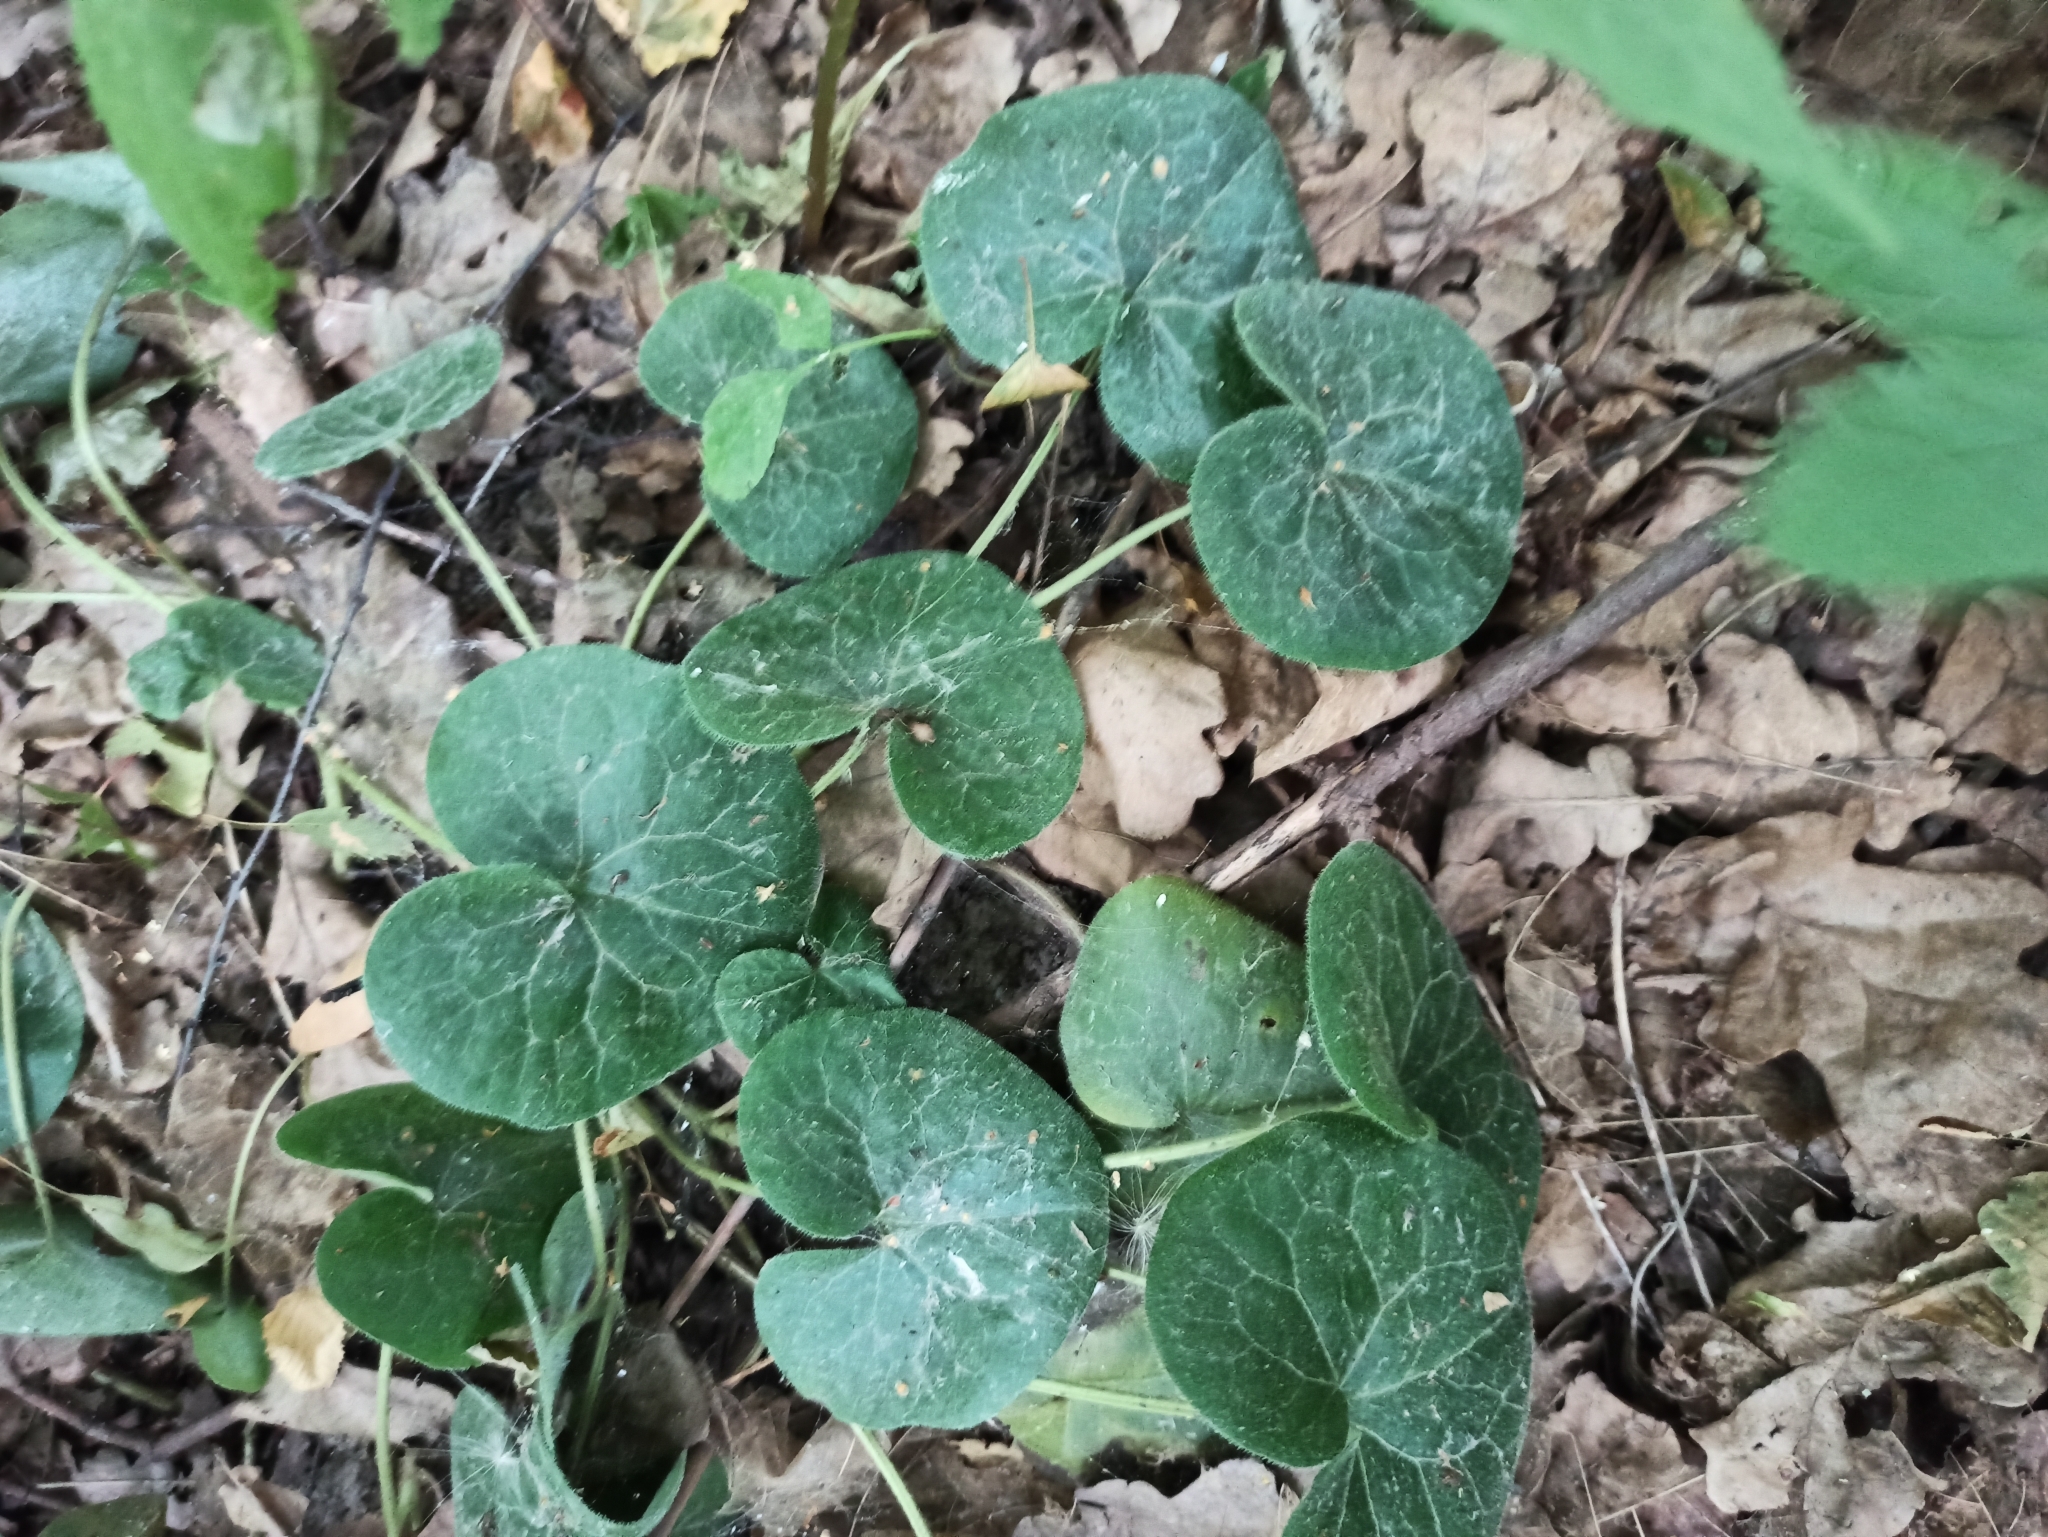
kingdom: Plantae
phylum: Tracheophyta
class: Magnoliopsida
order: Piperales
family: Aristolochiaceae
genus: Asarum
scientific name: Asarum europaeum
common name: Asarabacca
